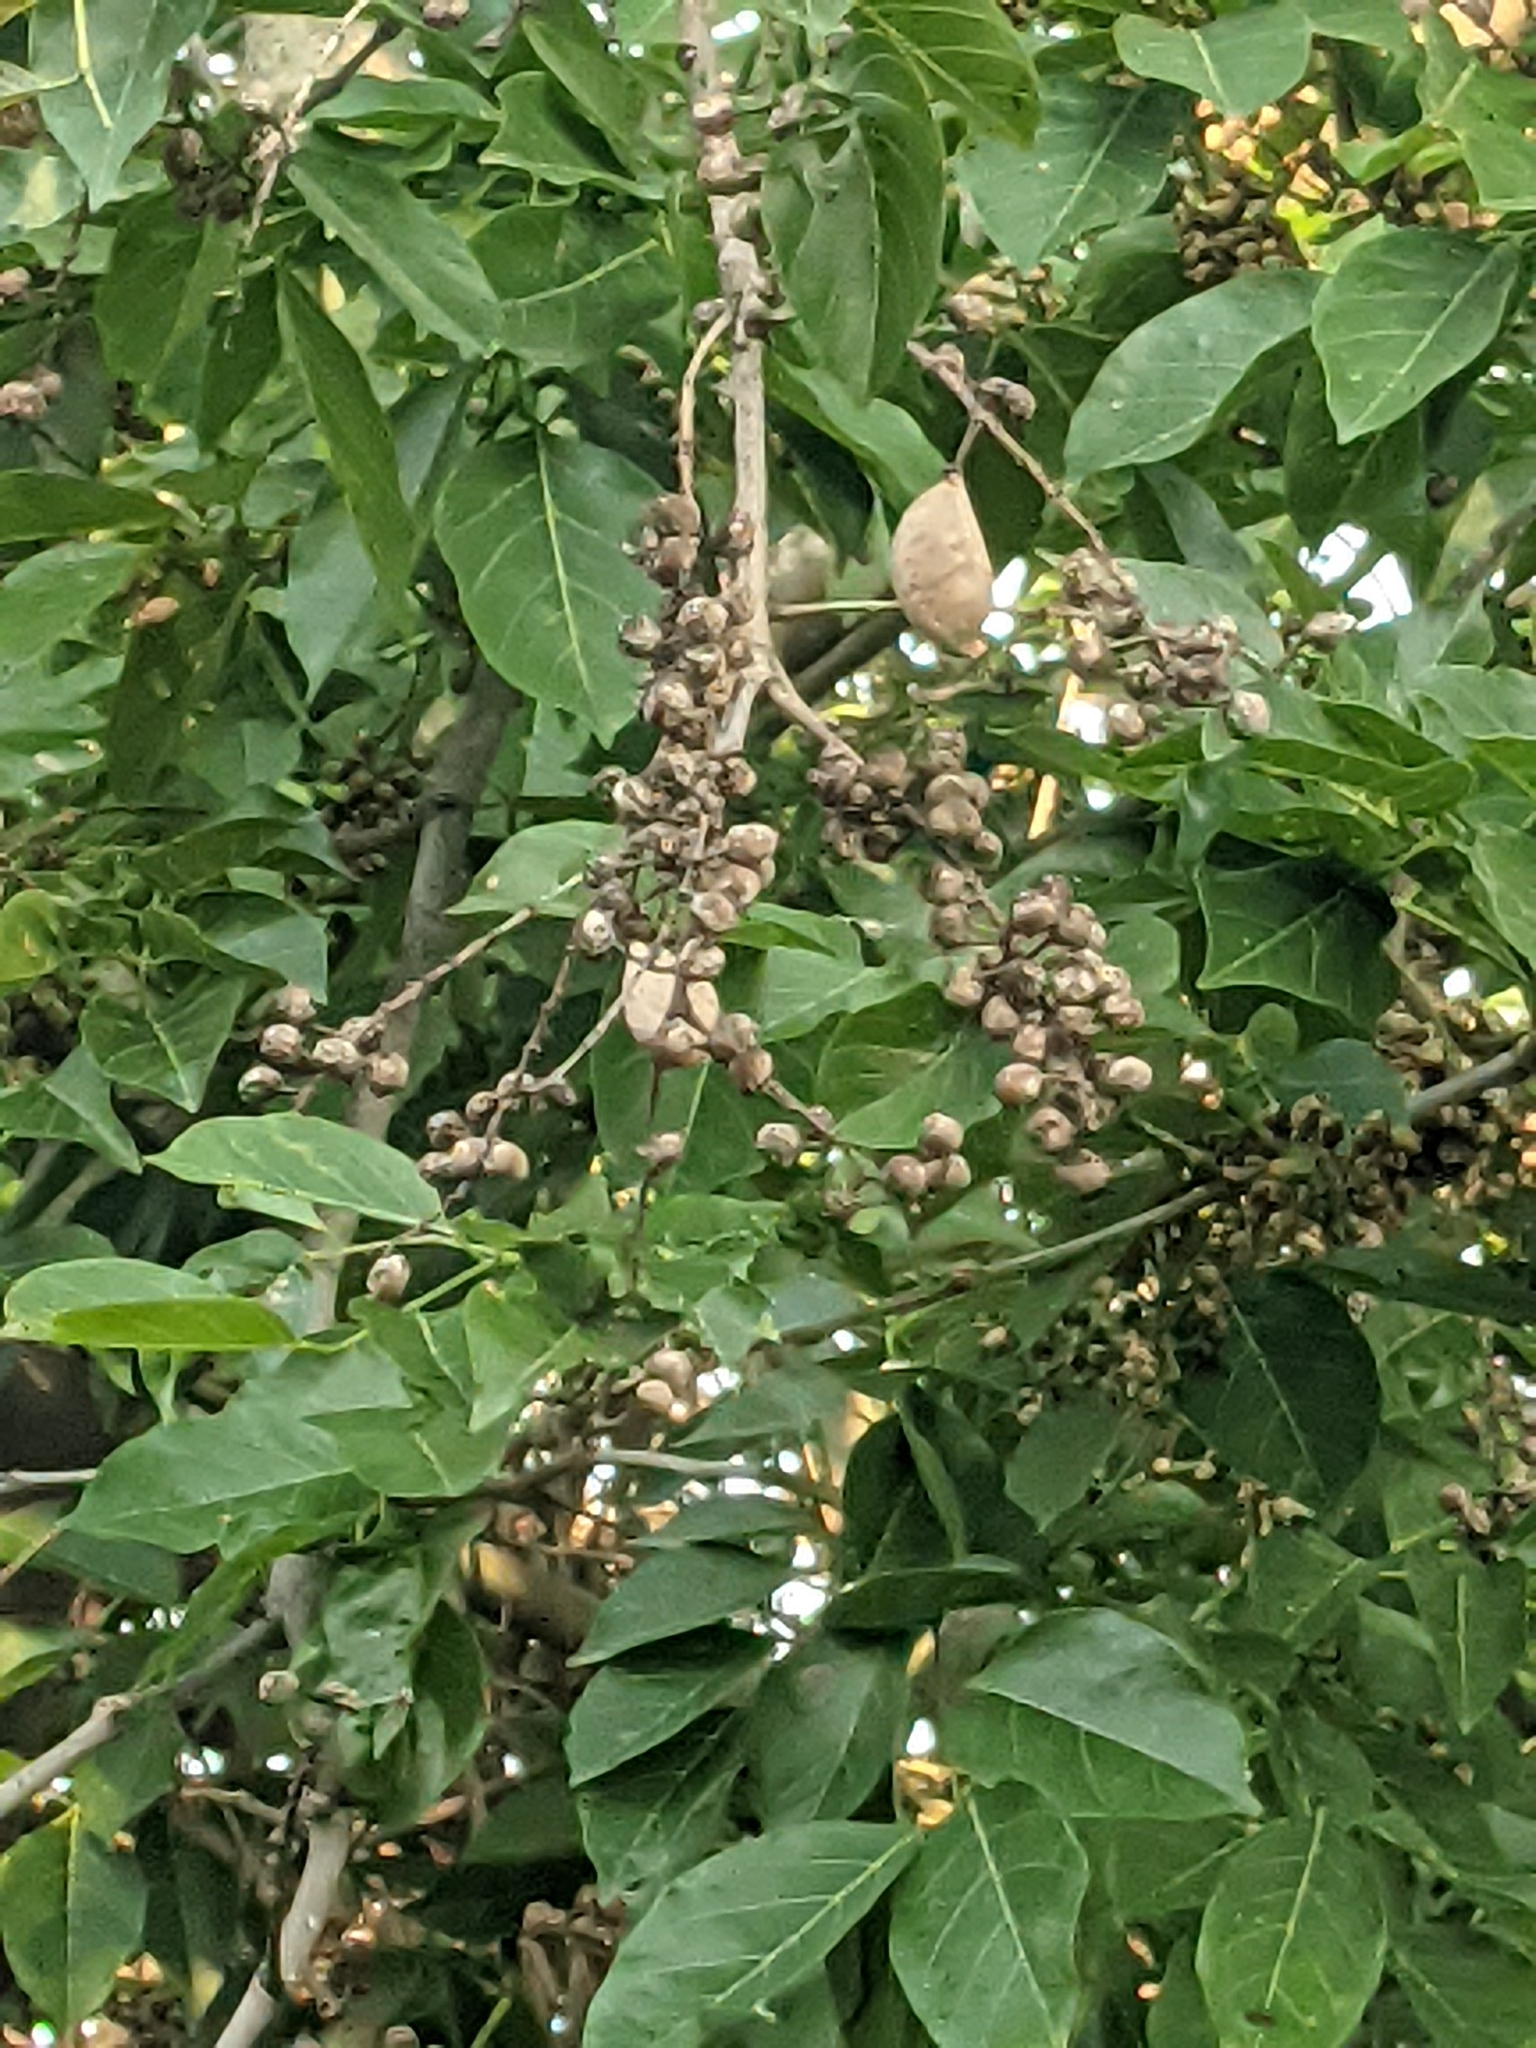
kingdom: Plantae
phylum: Tracheophyta
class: Magnoliopsida
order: Fabales
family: Fabaceae
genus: Pongamia
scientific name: Pongamia pinnata
